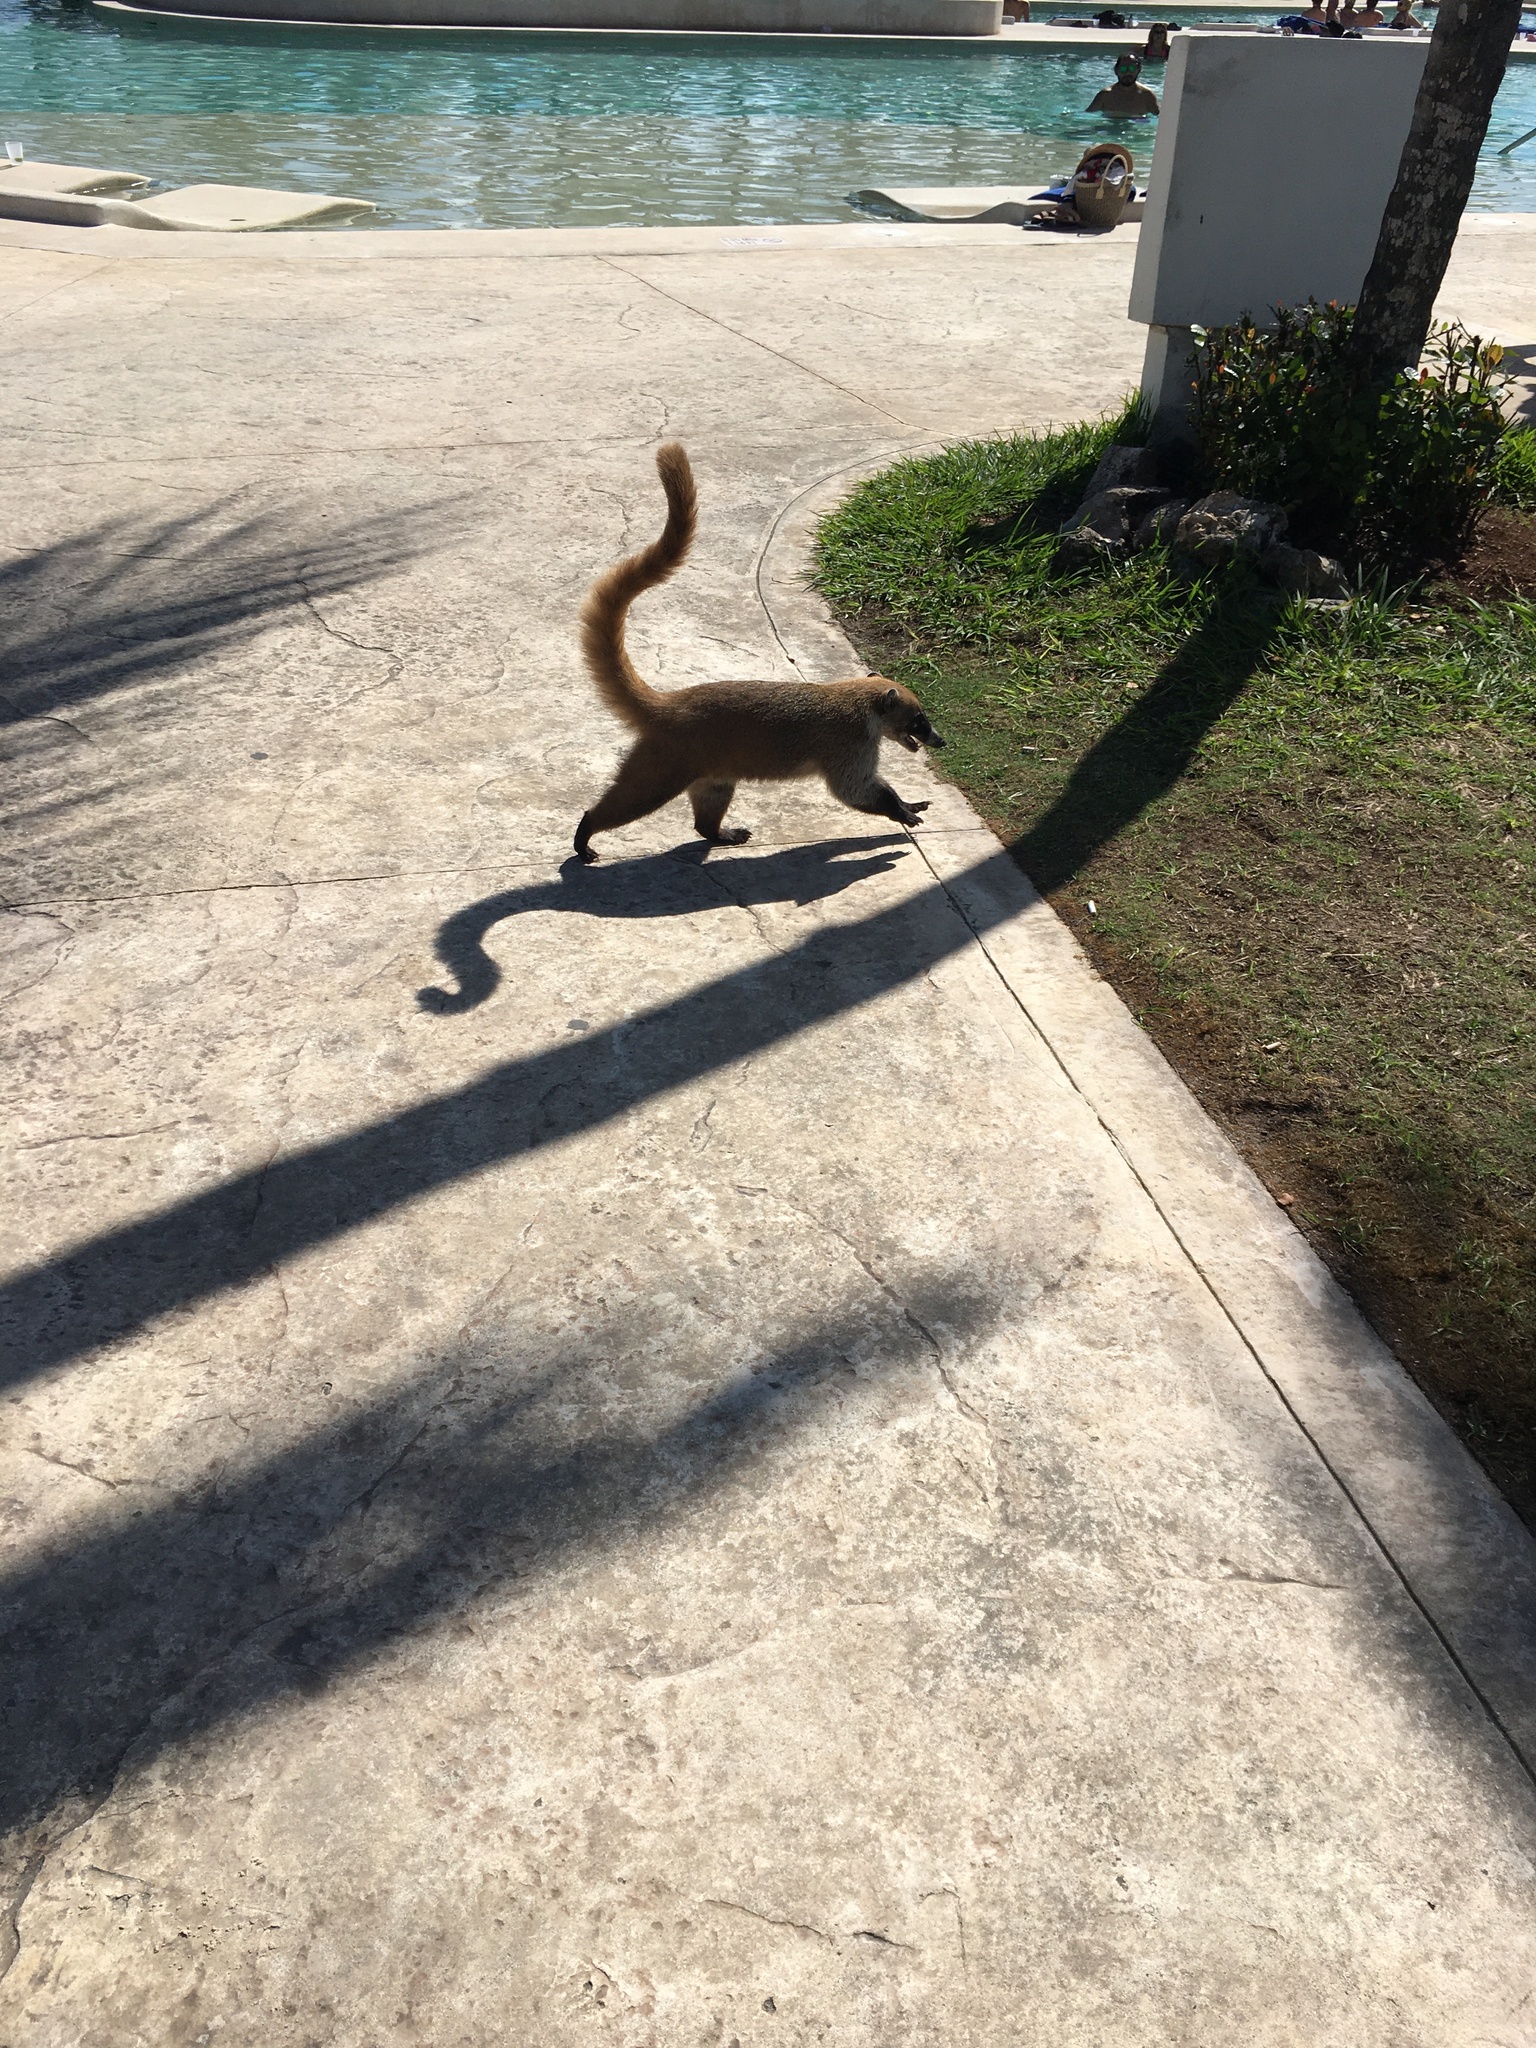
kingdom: Animalia
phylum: Chordata
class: Mammalia
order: Carnivora
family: Procyonidae
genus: Nasua
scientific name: Nasua narica
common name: White-nosed coati
